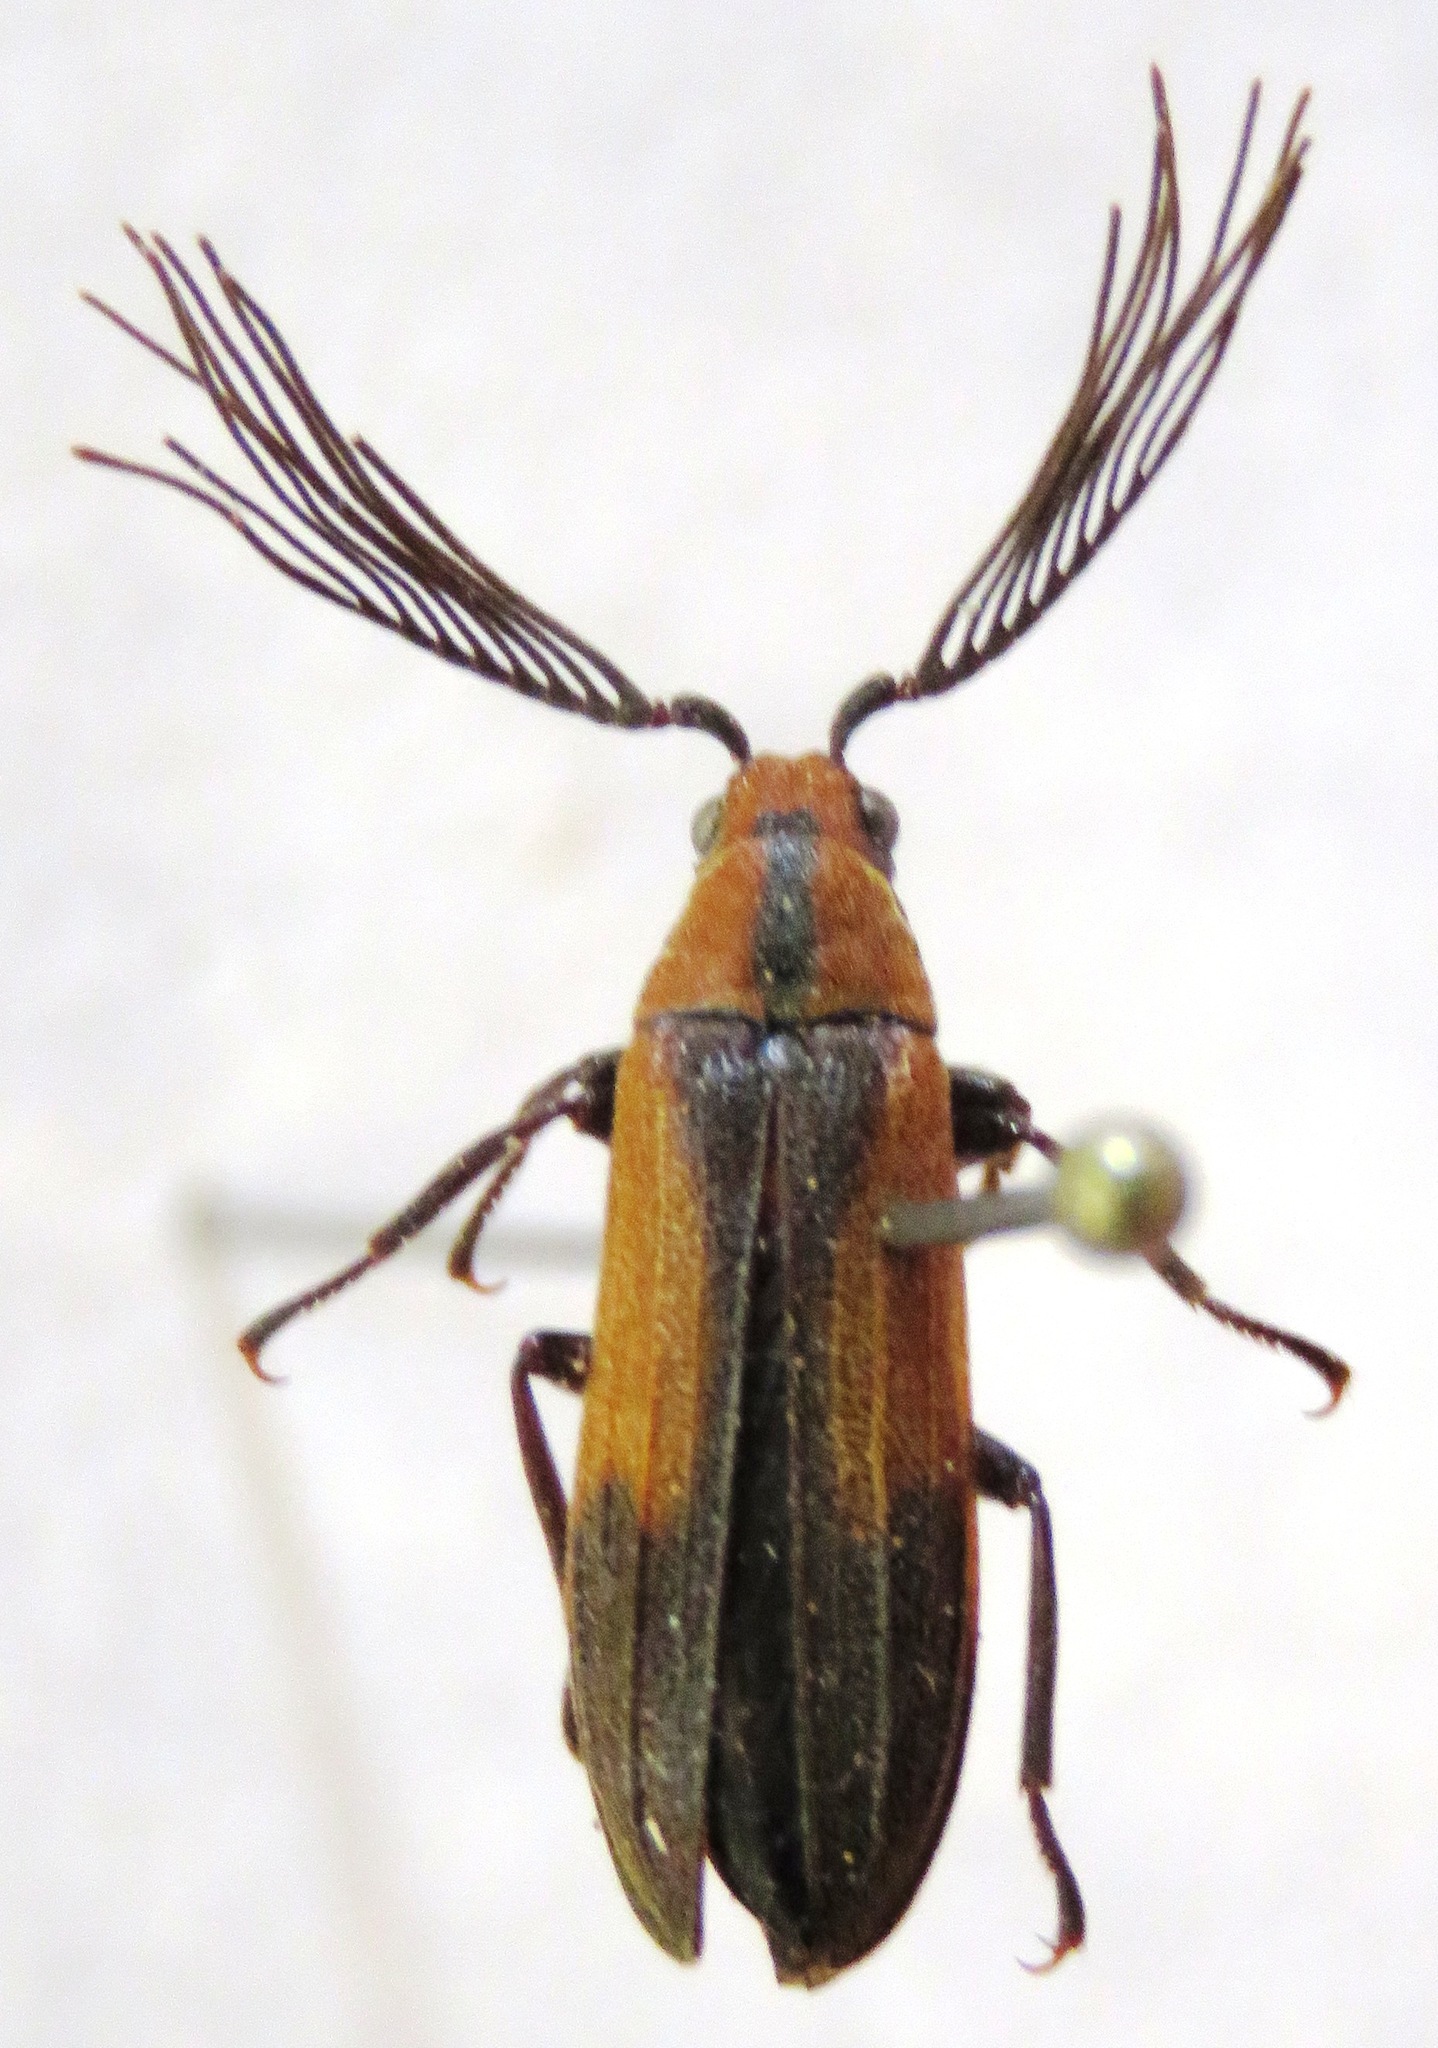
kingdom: Animalia
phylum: Arthropoda
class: Insecta
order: Coleoptera
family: Callirhipidae
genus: Celadonia
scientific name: Celadonia
